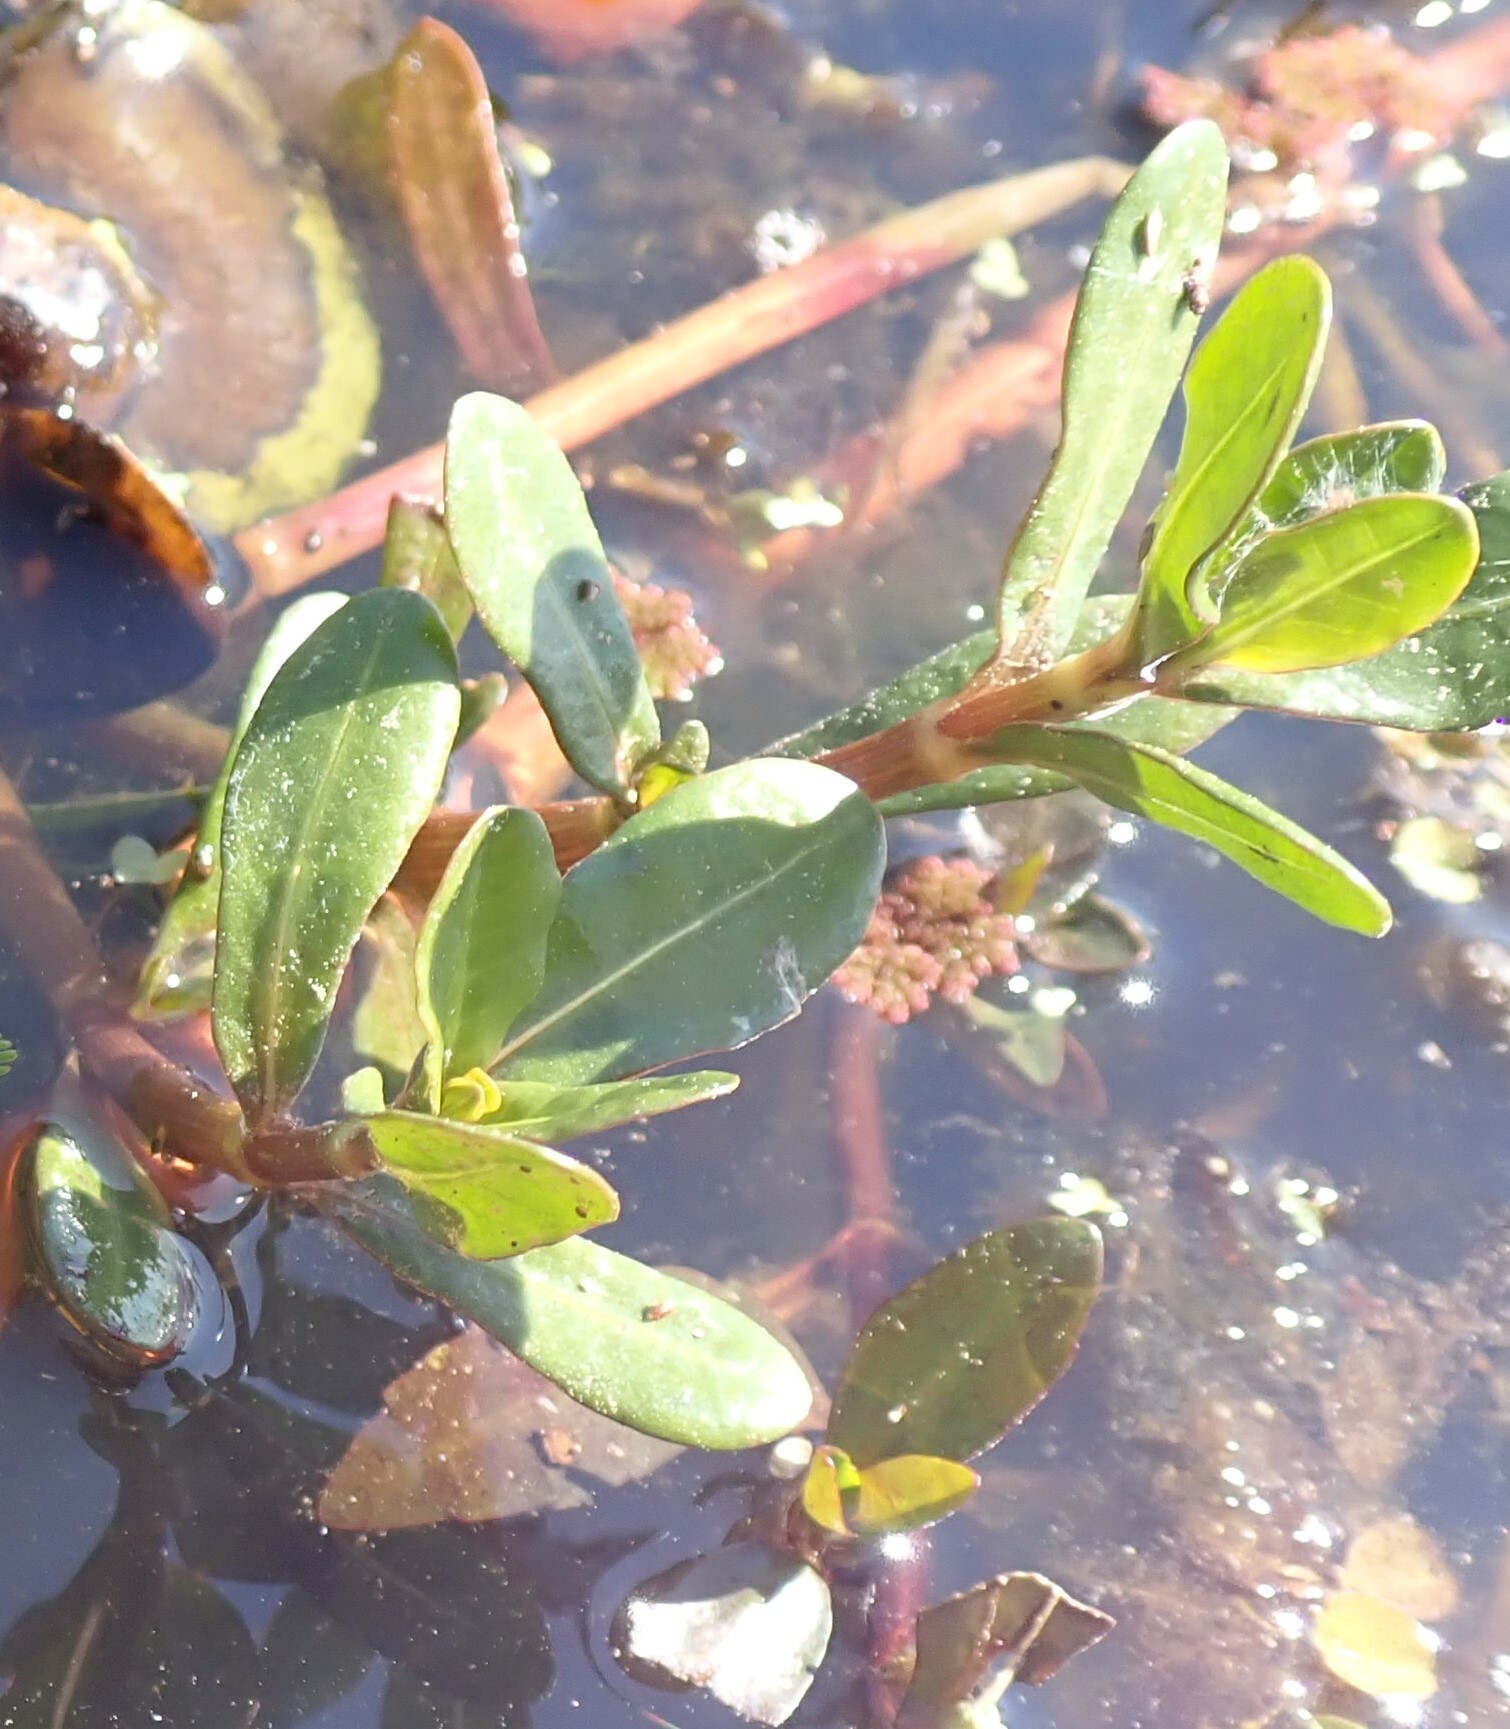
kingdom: Plantae
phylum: Tracheophyta
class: Magnoliopsida
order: Caryophyllales
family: Amaranthaceae
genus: Alternanthera
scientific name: Alternanthera philoxeroides
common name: Alligatorweed
